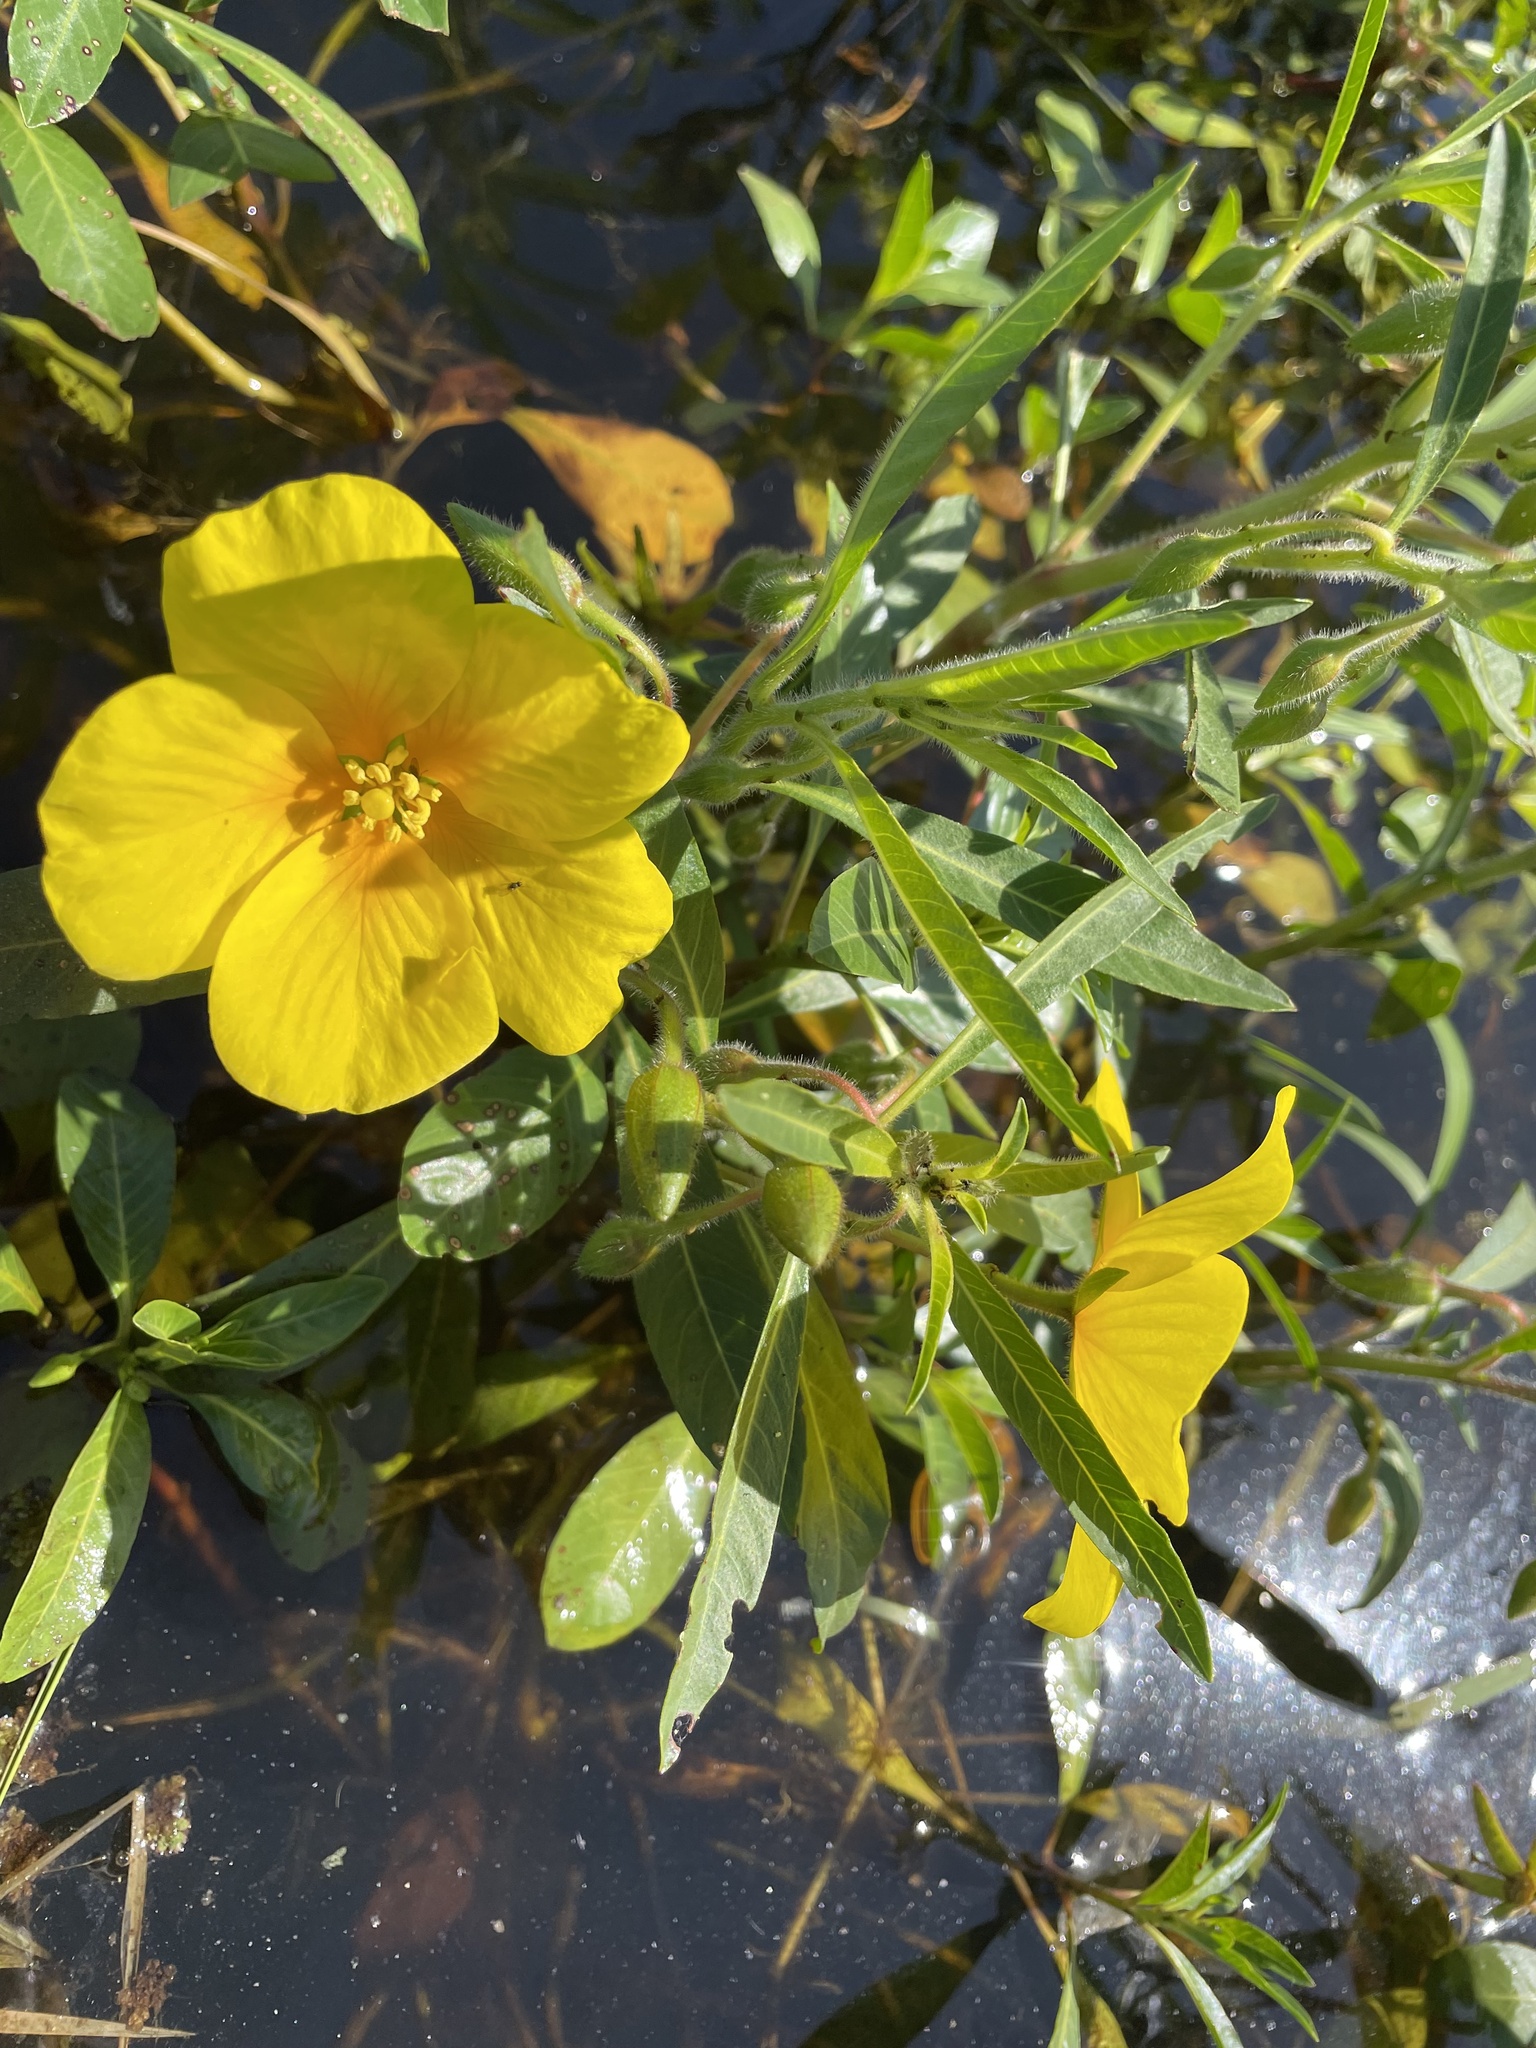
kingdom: Plantae
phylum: Tracheophyta
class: Magnoliopsida
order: Myrtales
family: Onagraceae
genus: Ludwigia
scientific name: Ludwigia peploides
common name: Floating primrose-willow
